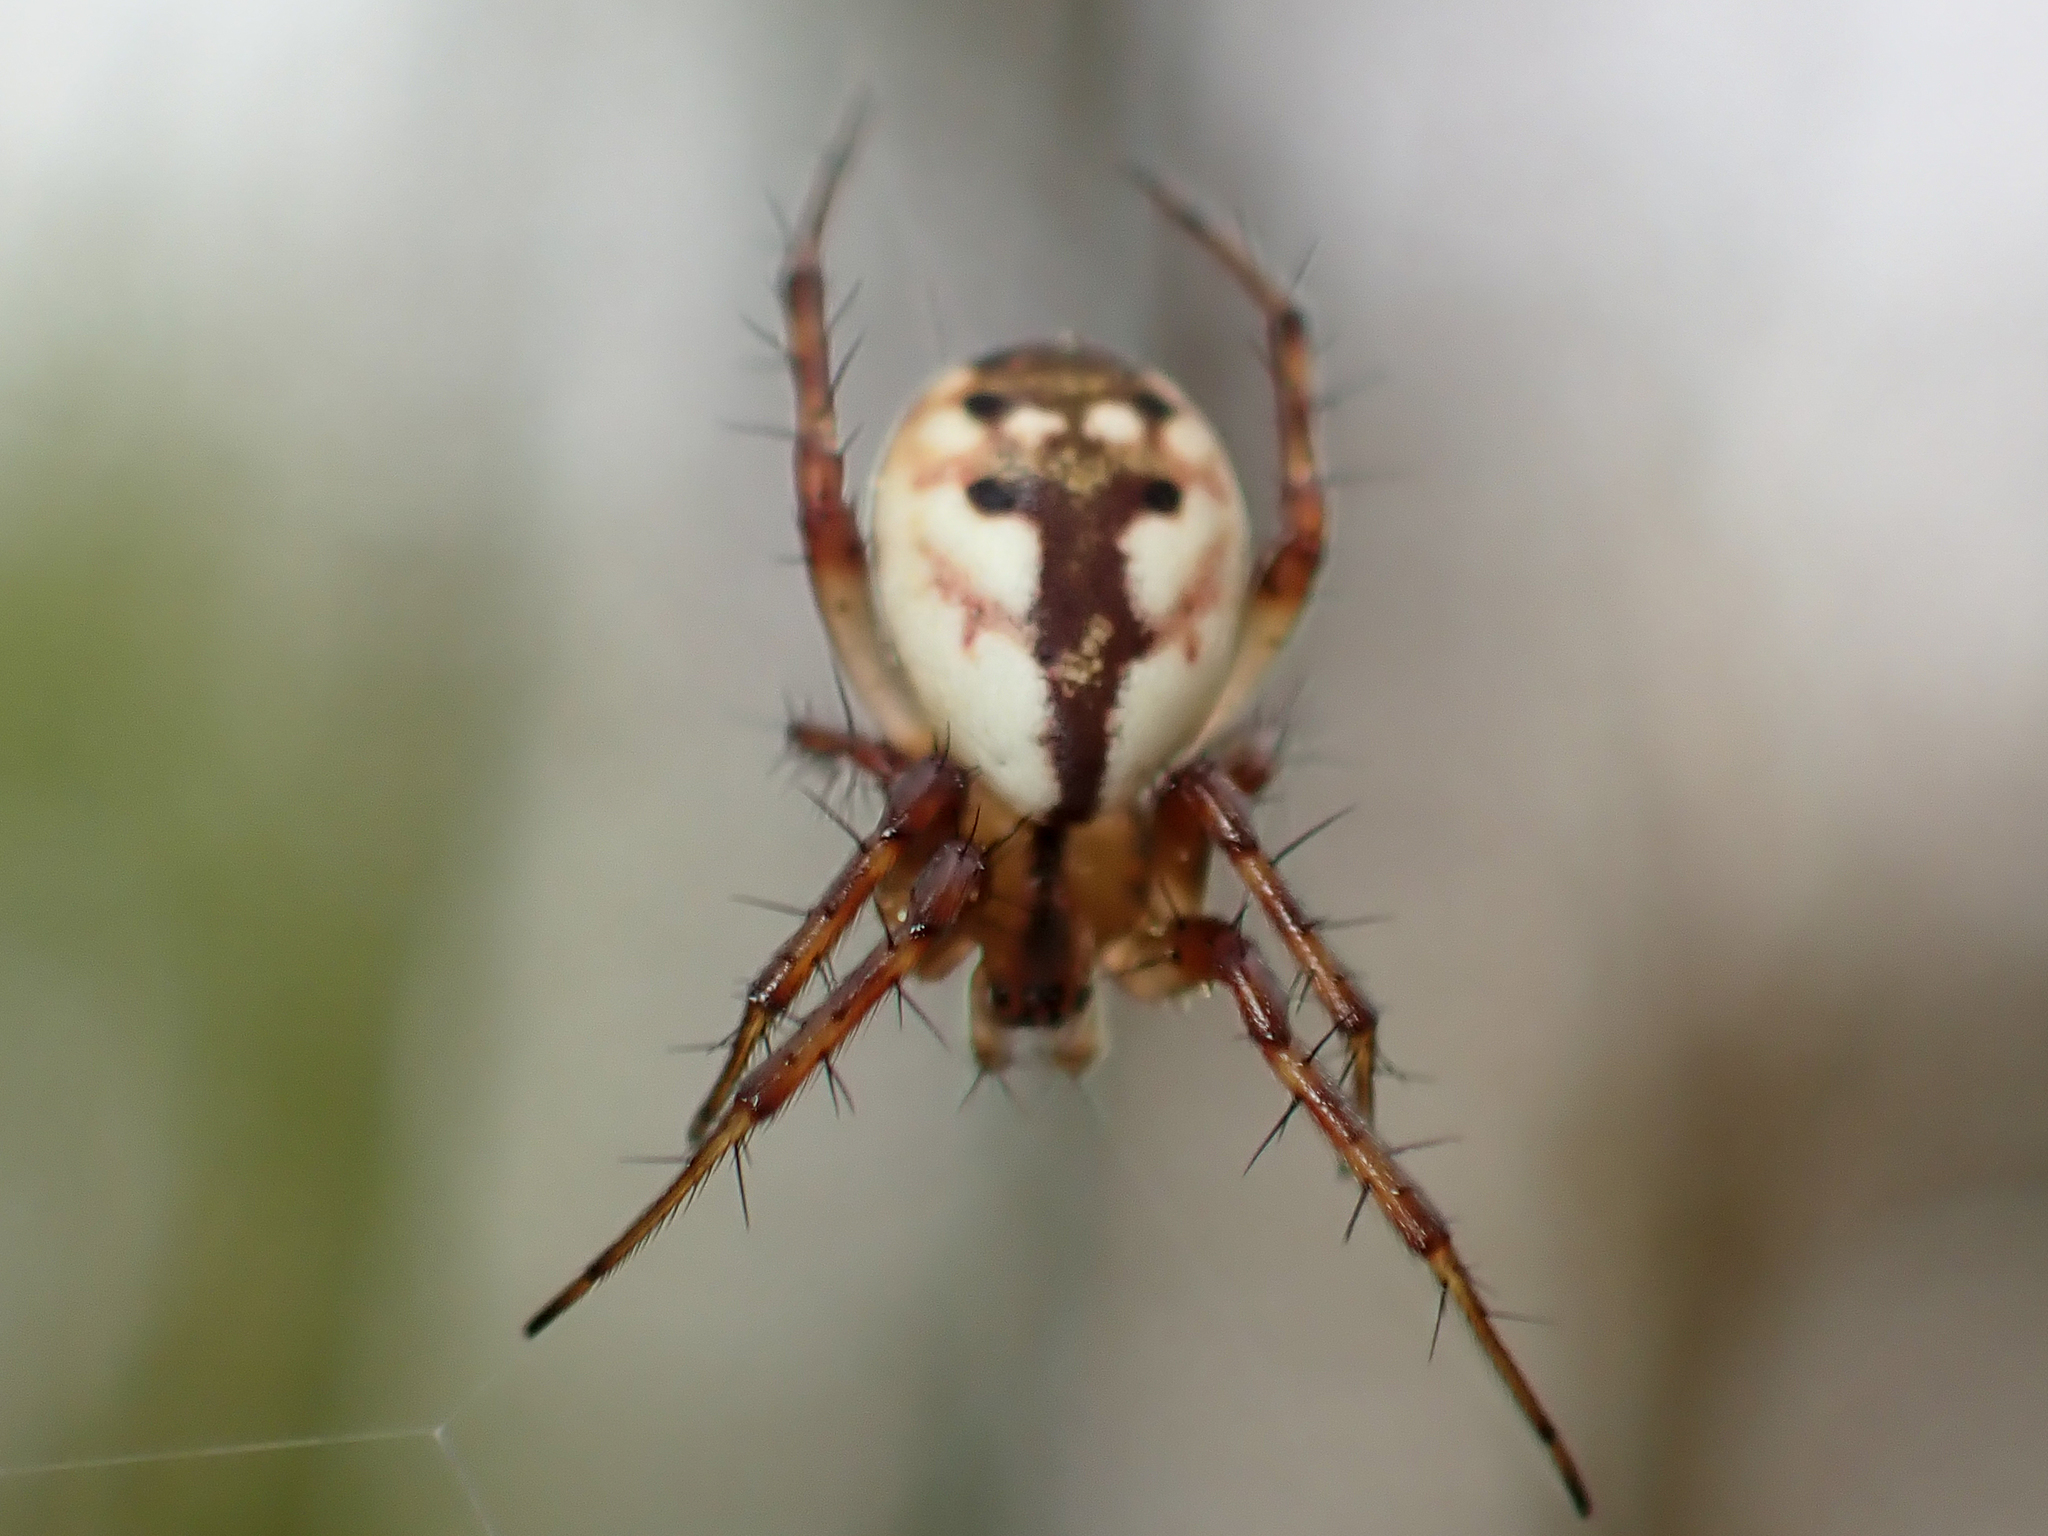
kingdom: Animalia
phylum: Arthropoda
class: Arachnida
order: Araneae
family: Araneidae
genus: Mangora
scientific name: Mangora placida
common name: Tuft-legged orbweaver
